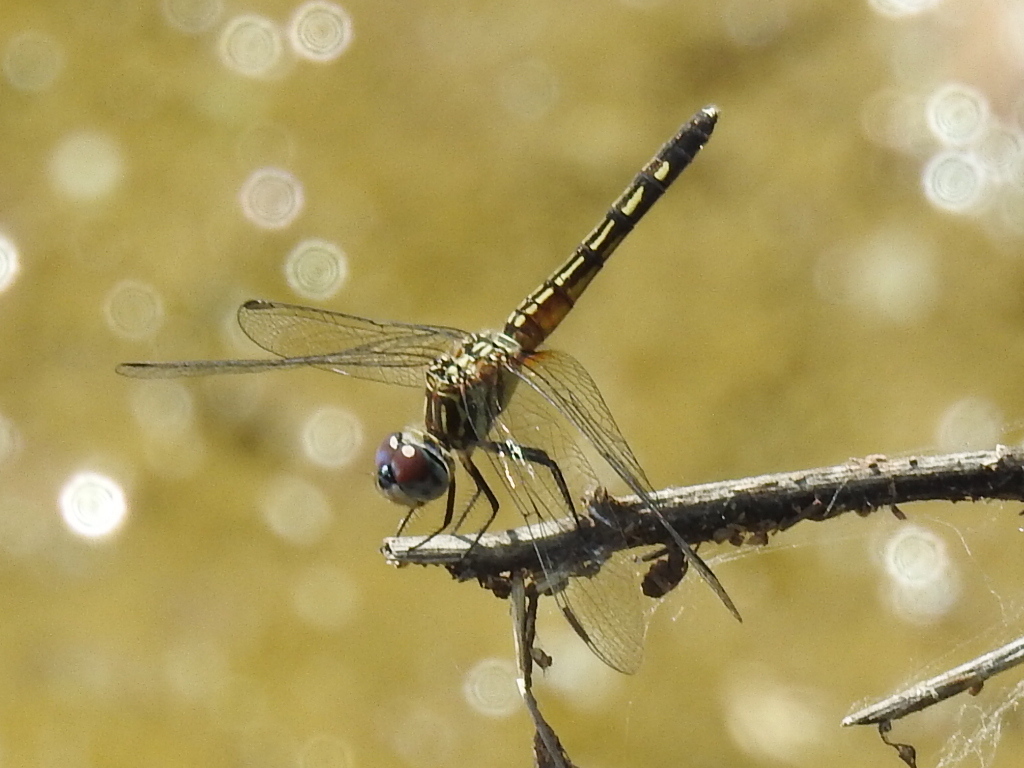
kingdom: Animalia
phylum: Arthropoda
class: Insecta
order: Odonata
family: Libellulidae
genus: Pachydiplax
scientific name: Pachydiplax longipennis
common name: Blue dasher
